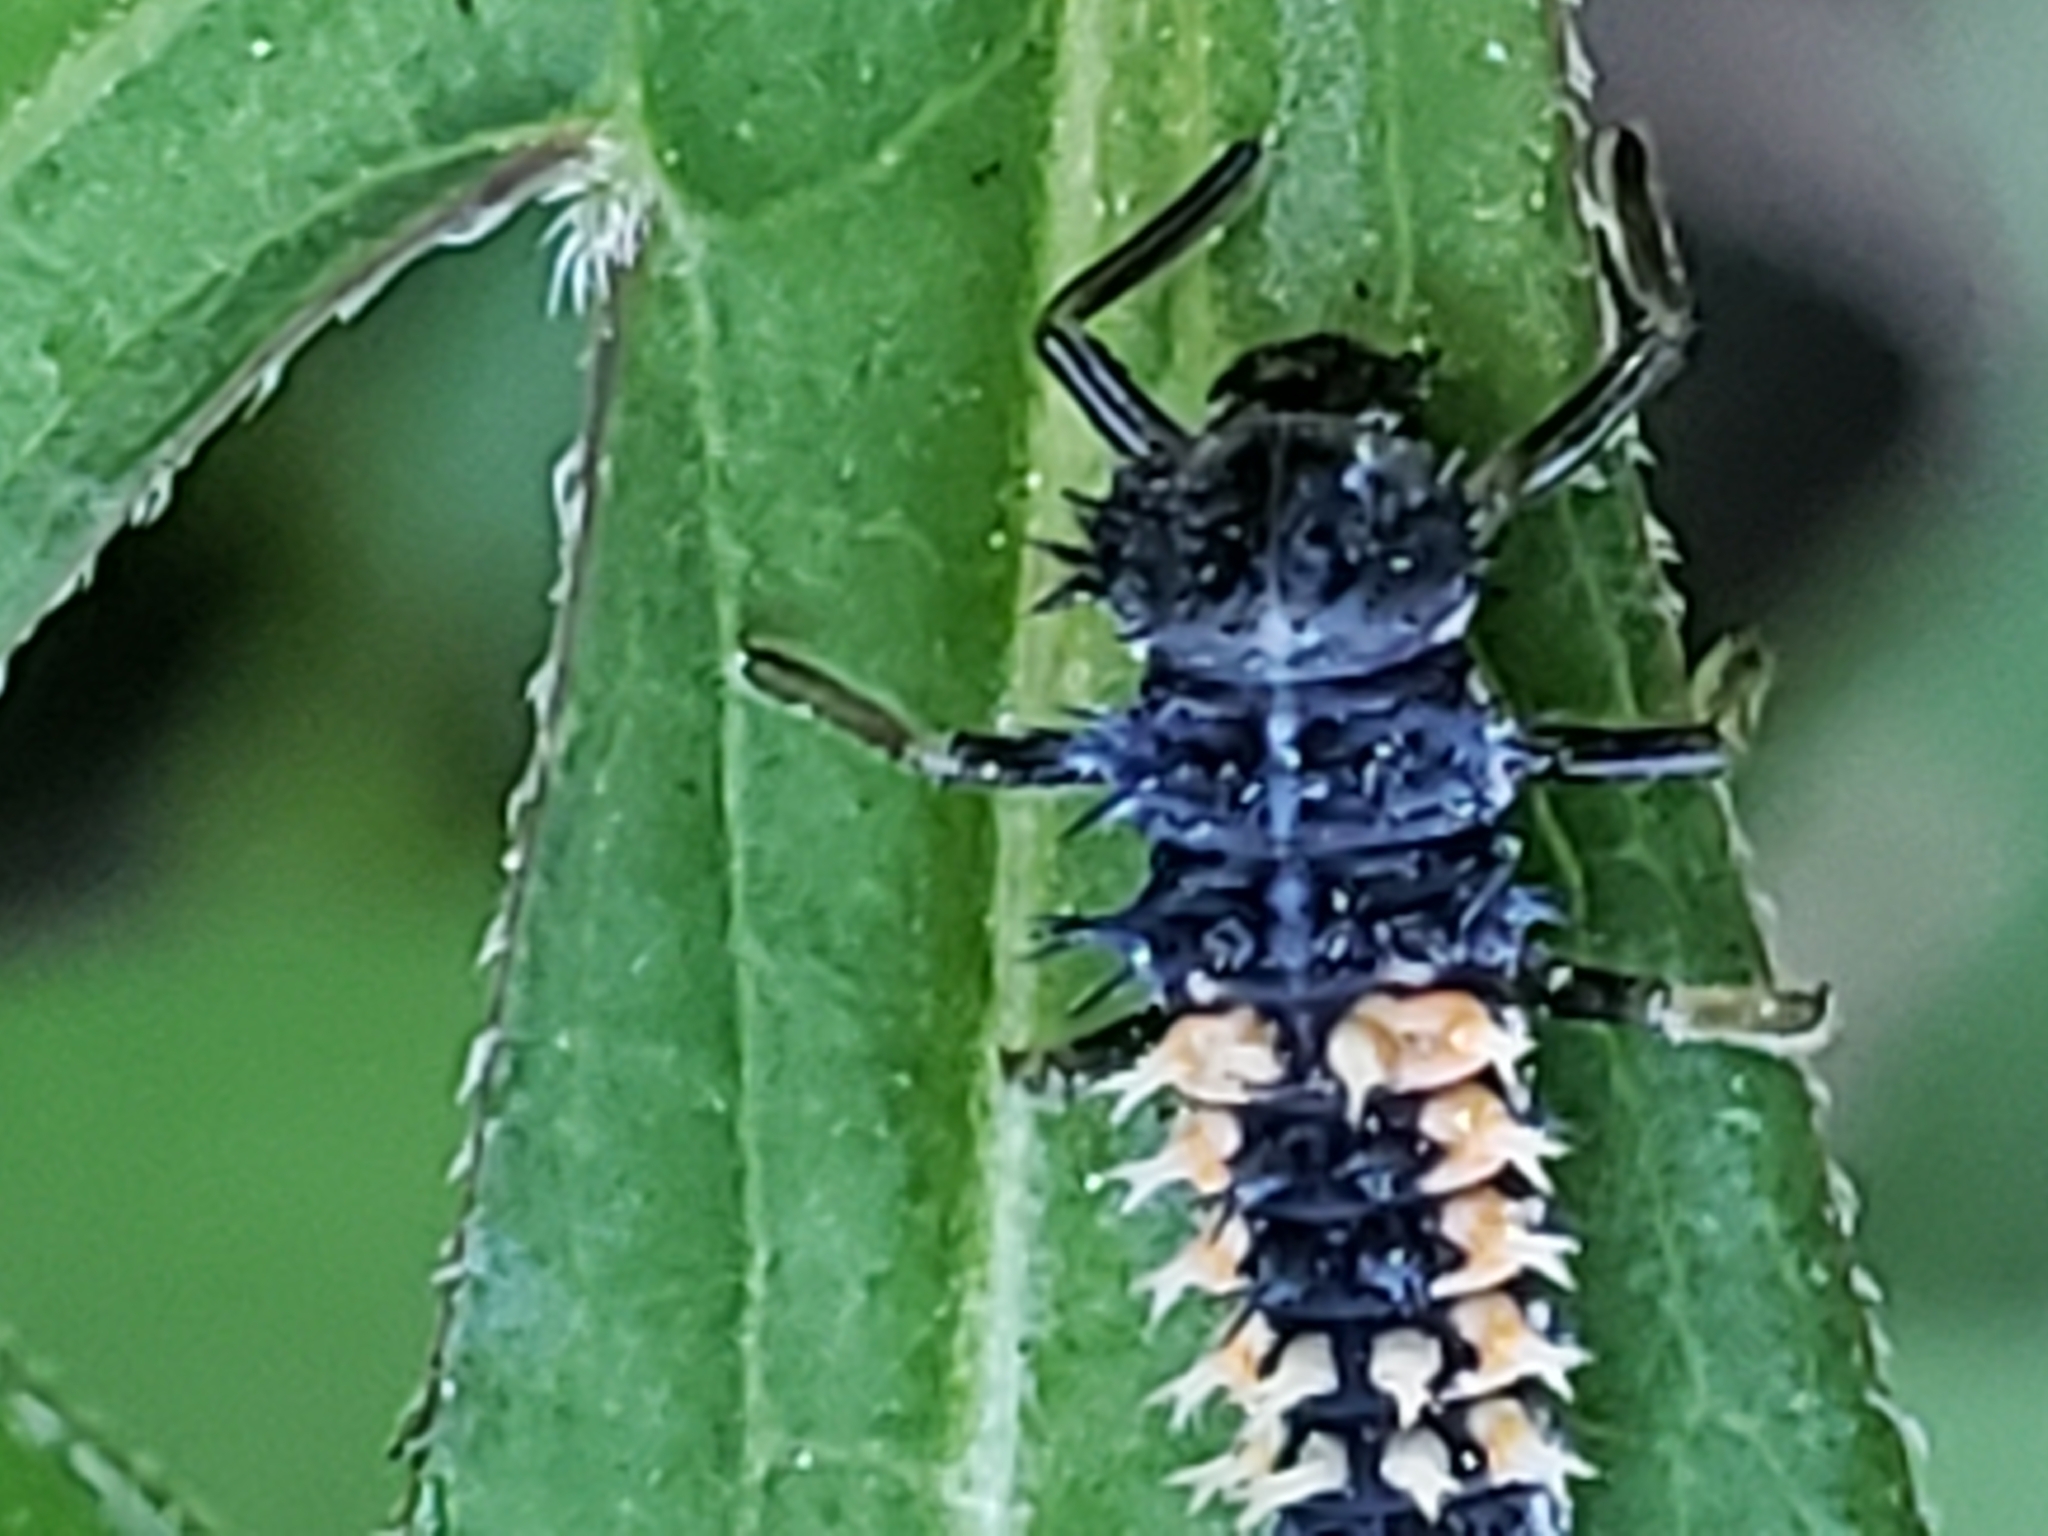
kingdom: Animalia
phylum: Arthropoda
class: Insecta
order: Coleoptera
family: Coccinellidae
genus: Harmonia
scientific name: Harmonia axyridis
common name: Harlequin ladybird
